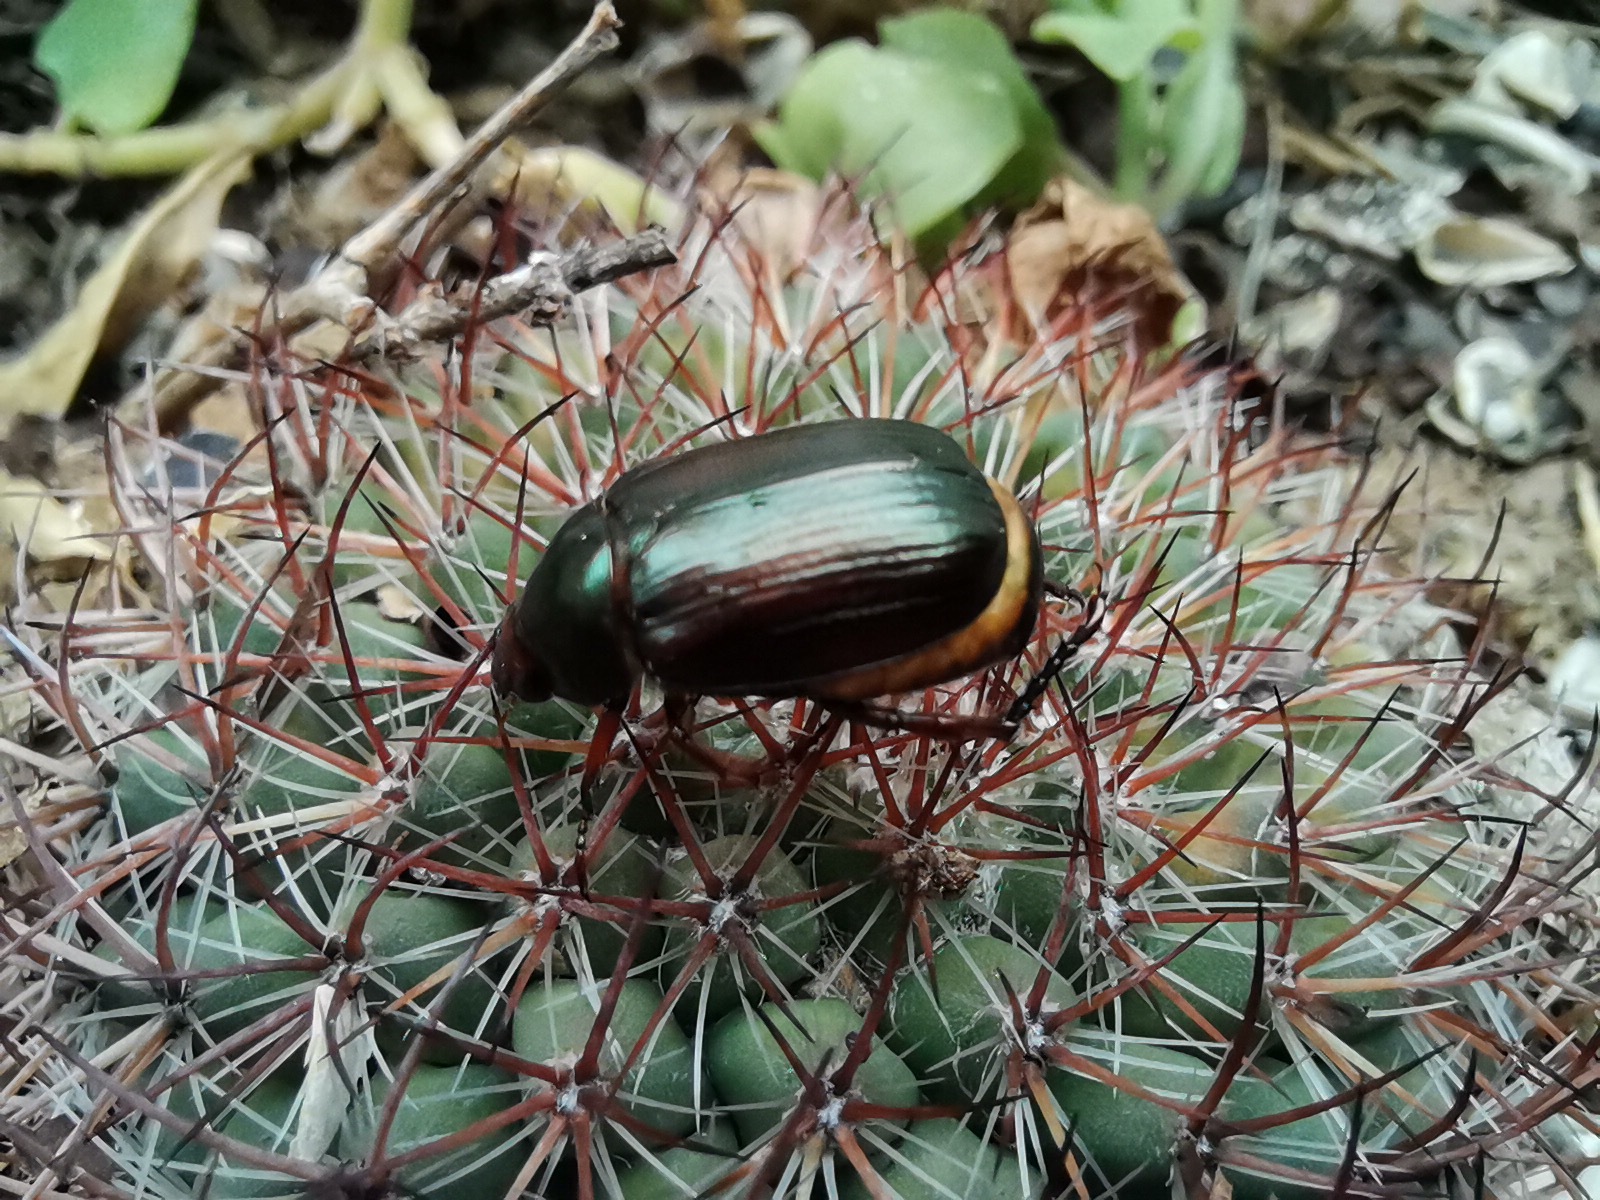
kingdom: Animalia
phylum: Arthropoda
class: Insecta
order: Coleoptera
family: Scarabaeidae
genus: Paranomala
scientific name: Paranomala cincta
